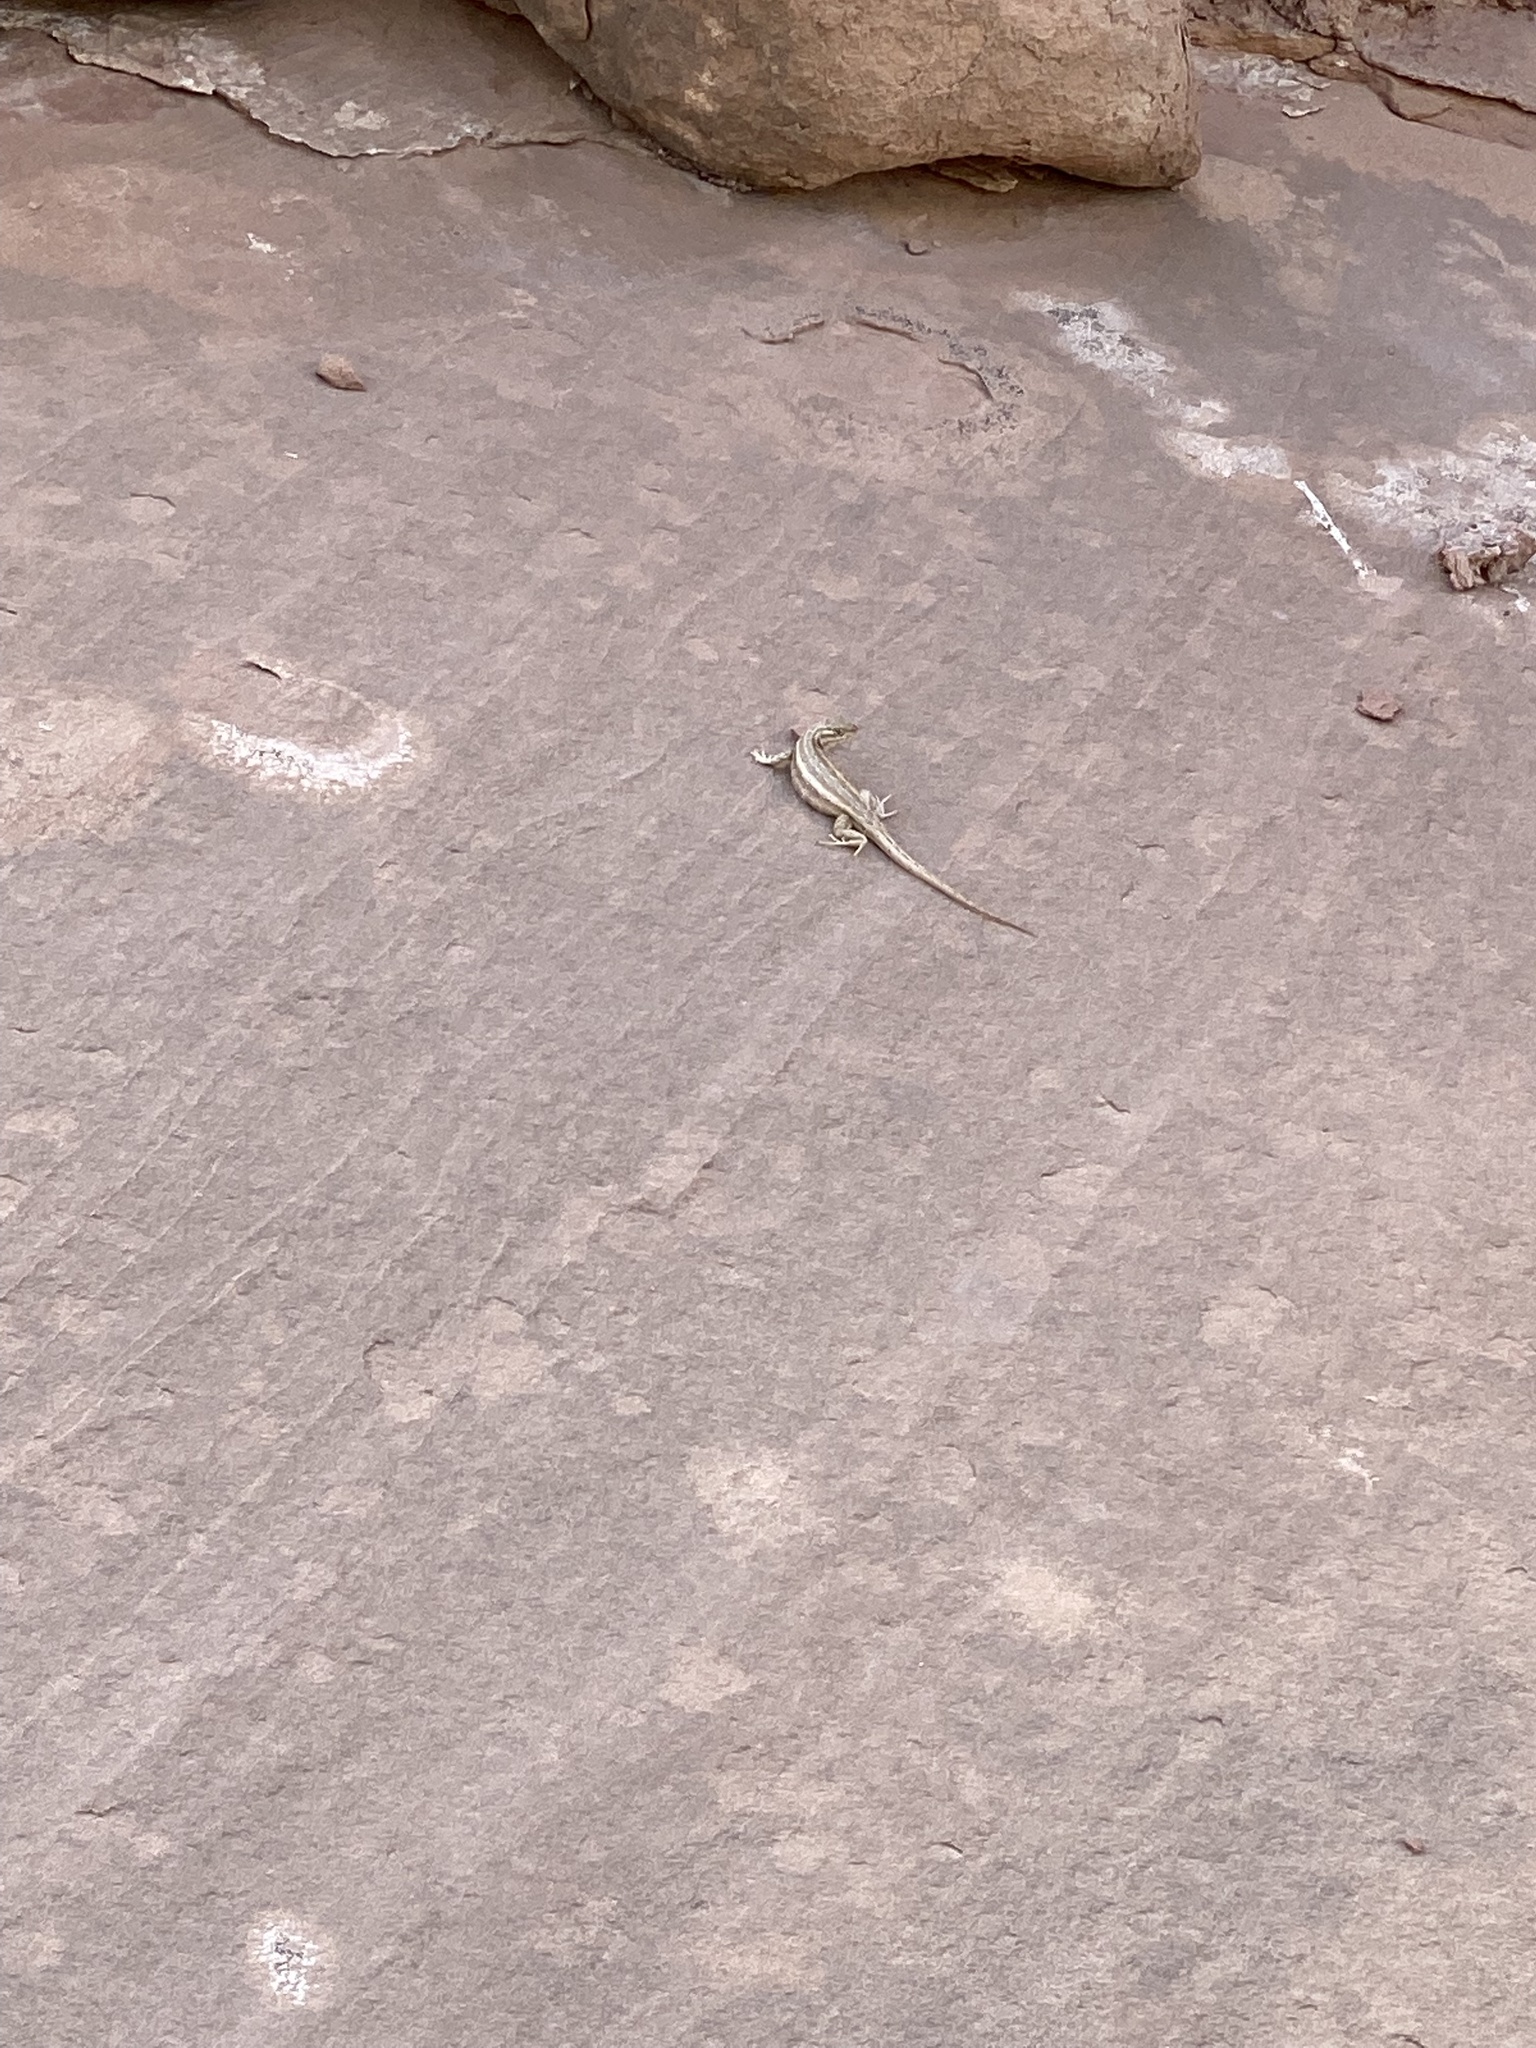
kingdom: Animalia
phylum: Chordata
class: Squamata
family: Phrynosomatidae
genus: Sceloporus
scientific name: Sceloporus graciosus
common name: Sagebrush lizard
